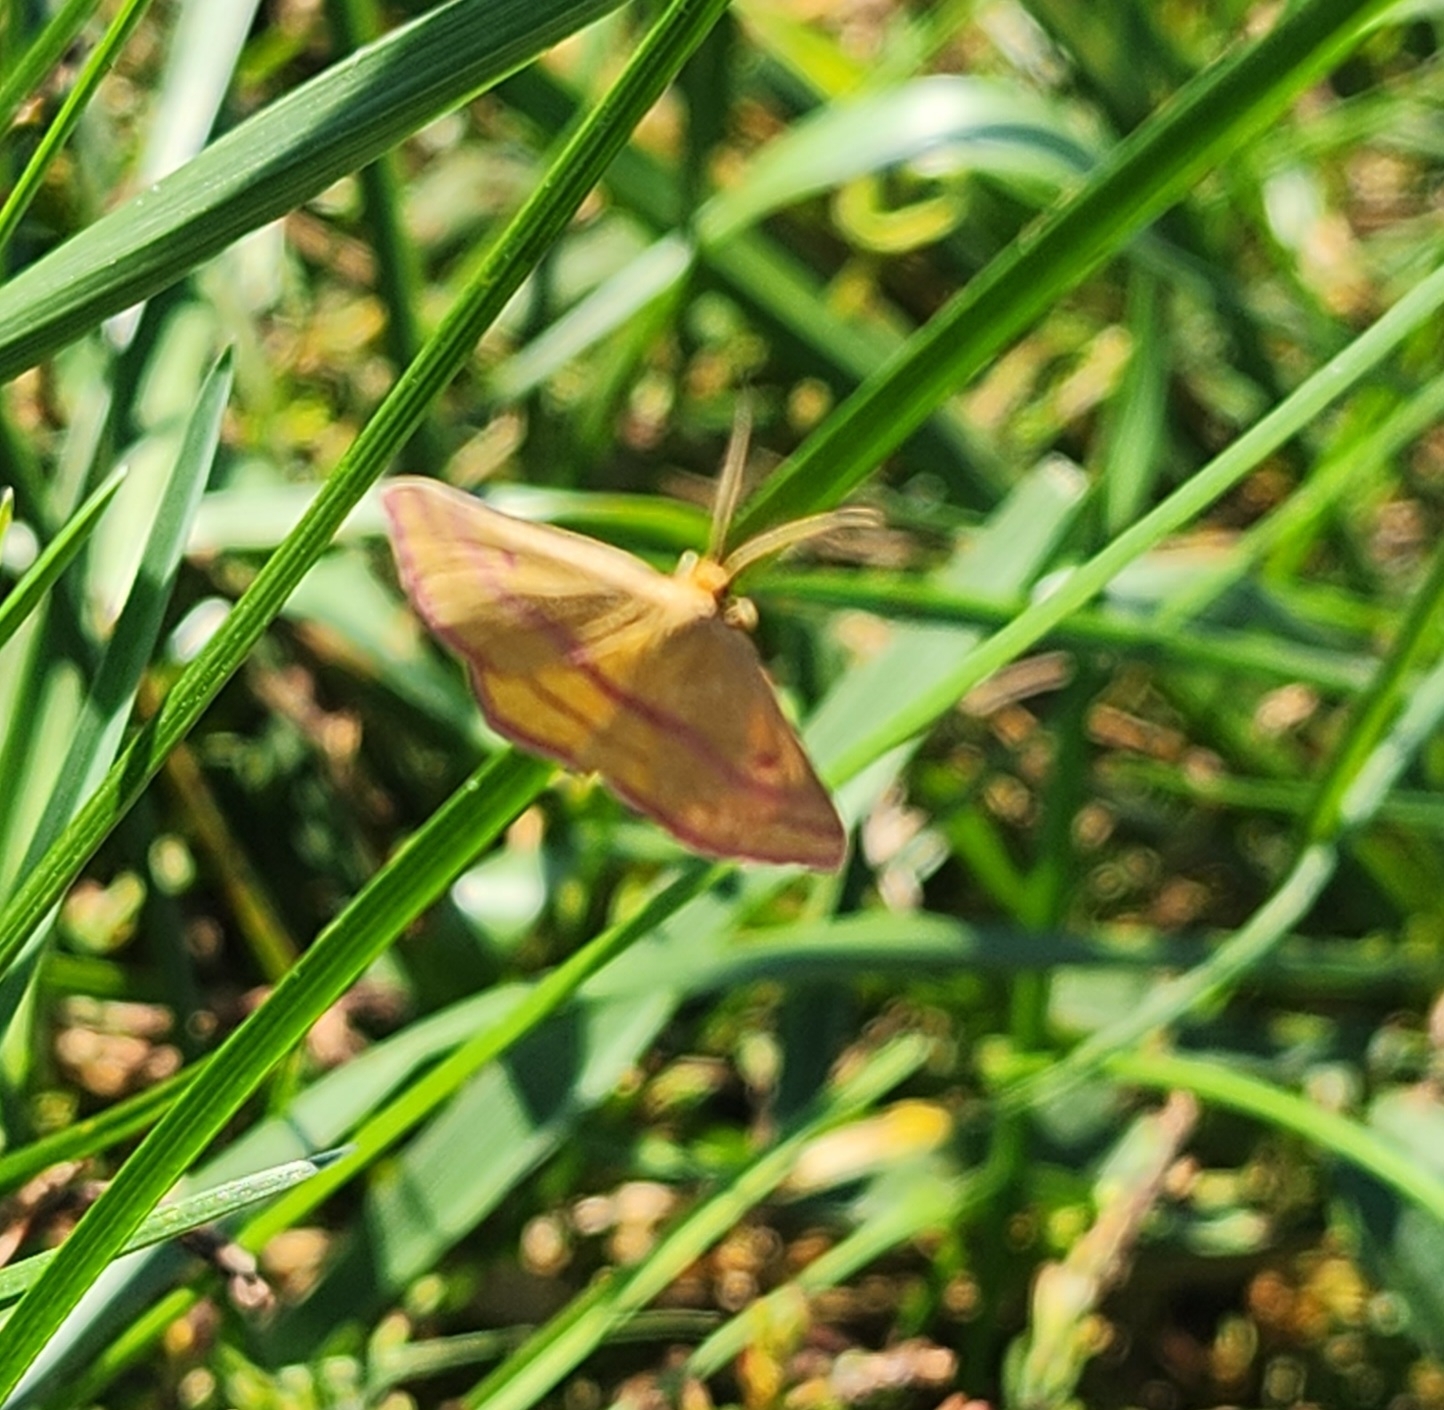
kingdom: Animalia
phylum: Arthropoda
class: Insecta
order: Lepidoptera
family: Geometridae
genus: Haematopis
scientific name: Haematopis grataria
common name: Chickweed geometer
